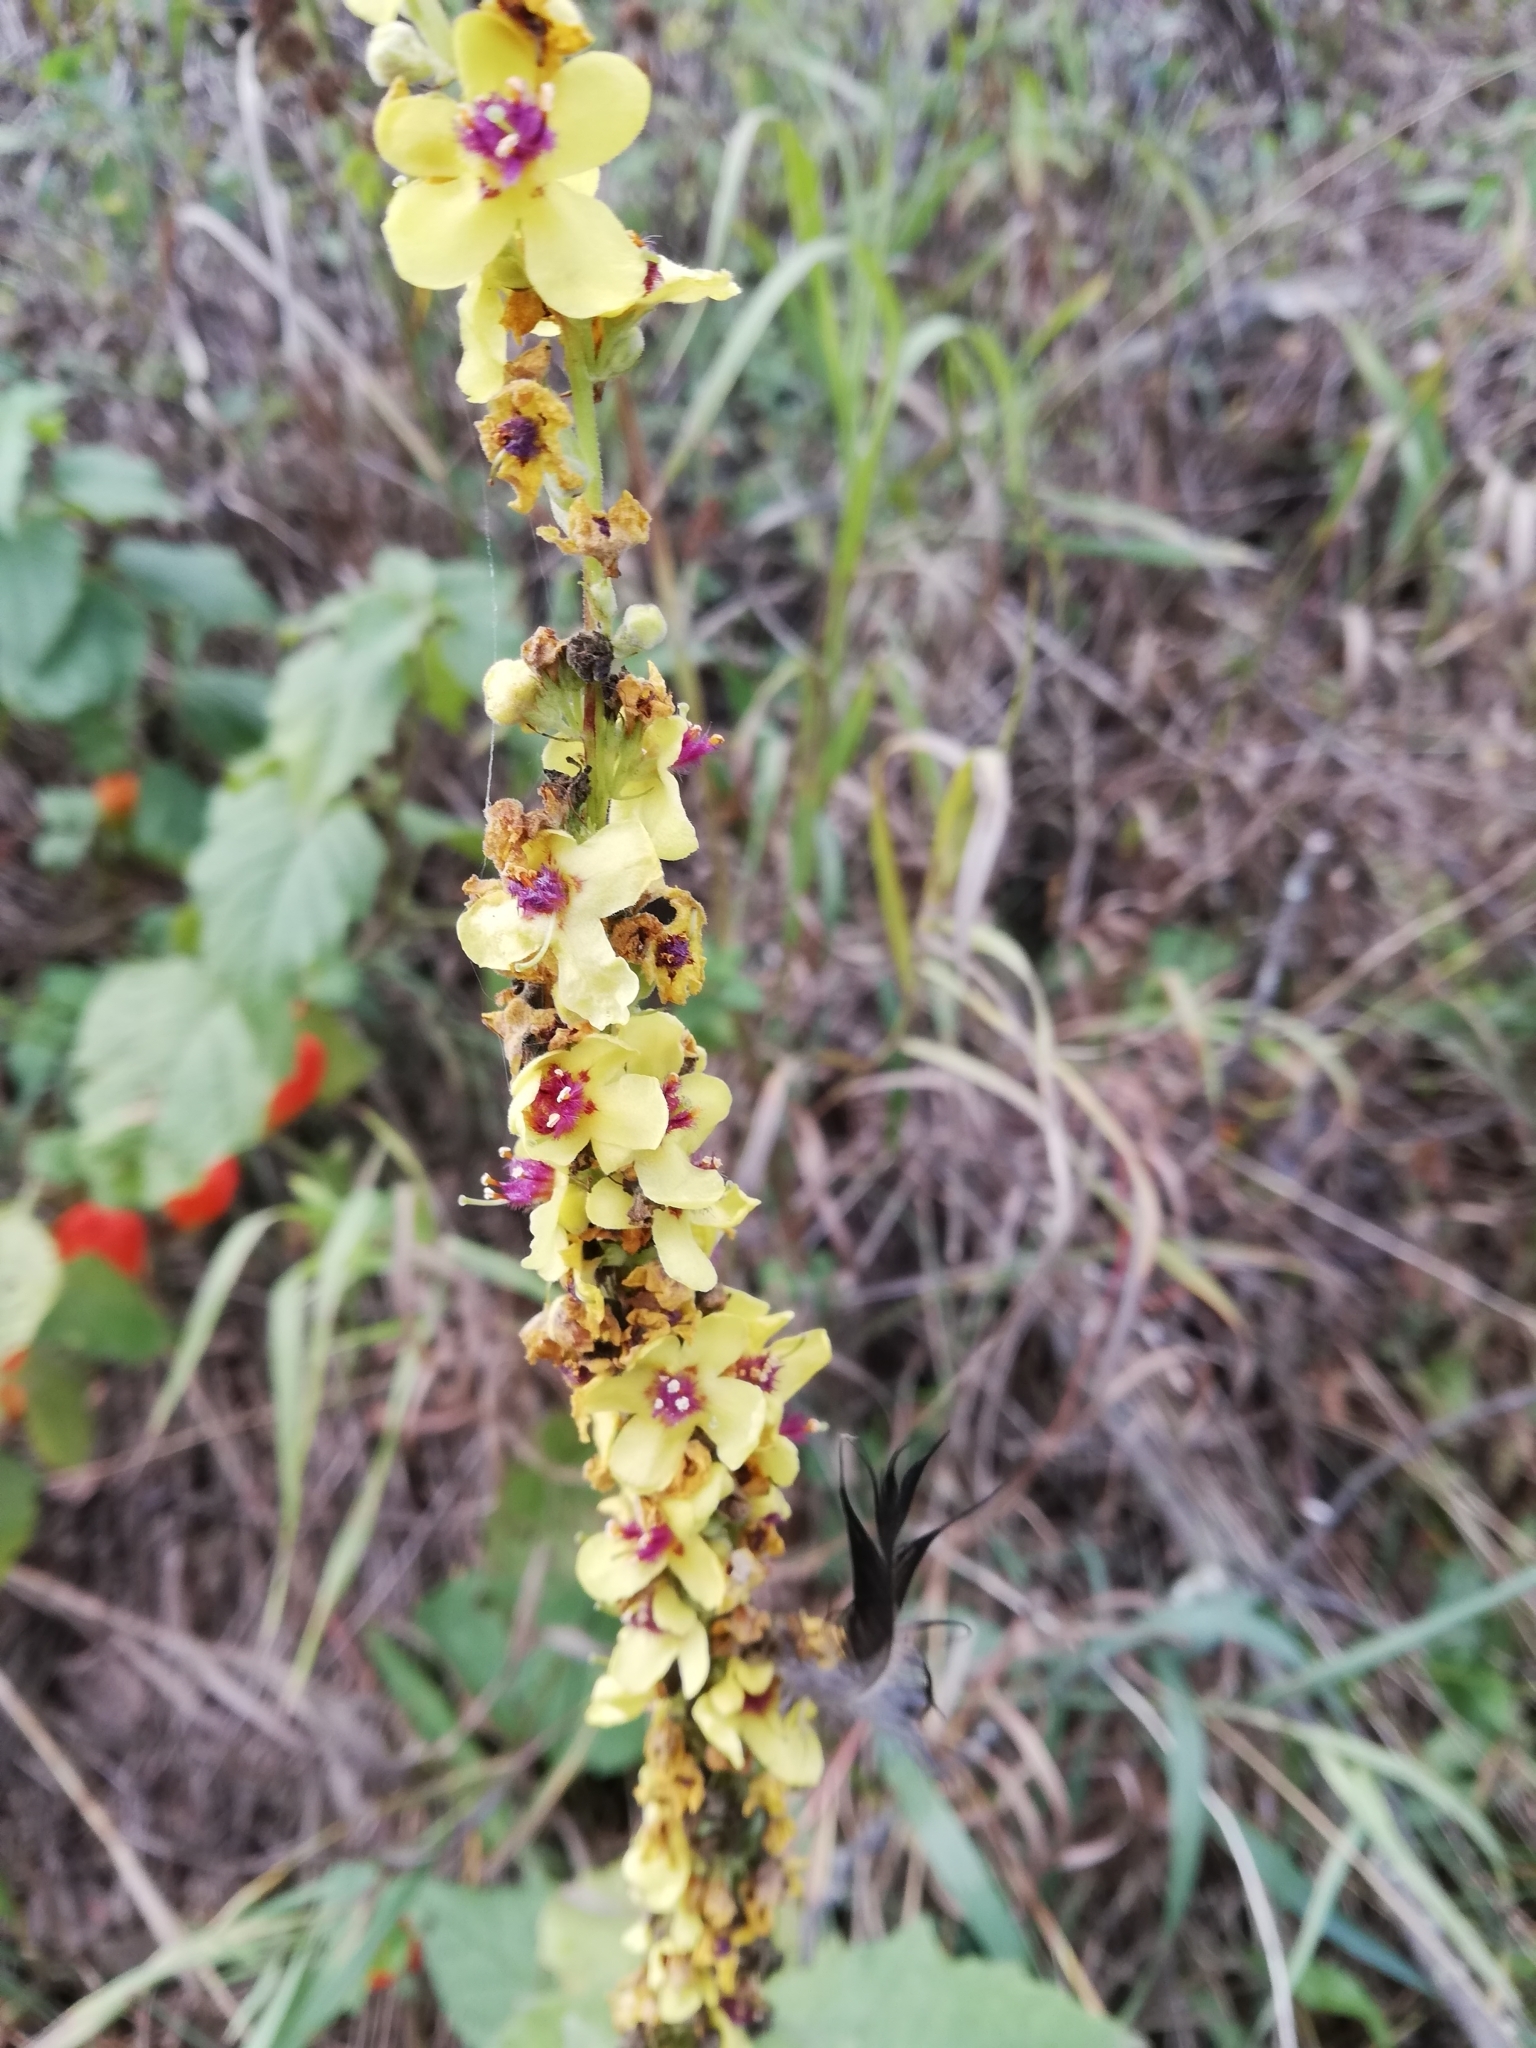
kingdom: Plantae
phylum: Tracheophyta
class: Magnoliopsida
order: Lamiales
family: Scrophulariaceae
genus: Verbascum
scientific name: Verbascum nigrum
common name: Dark mullein
